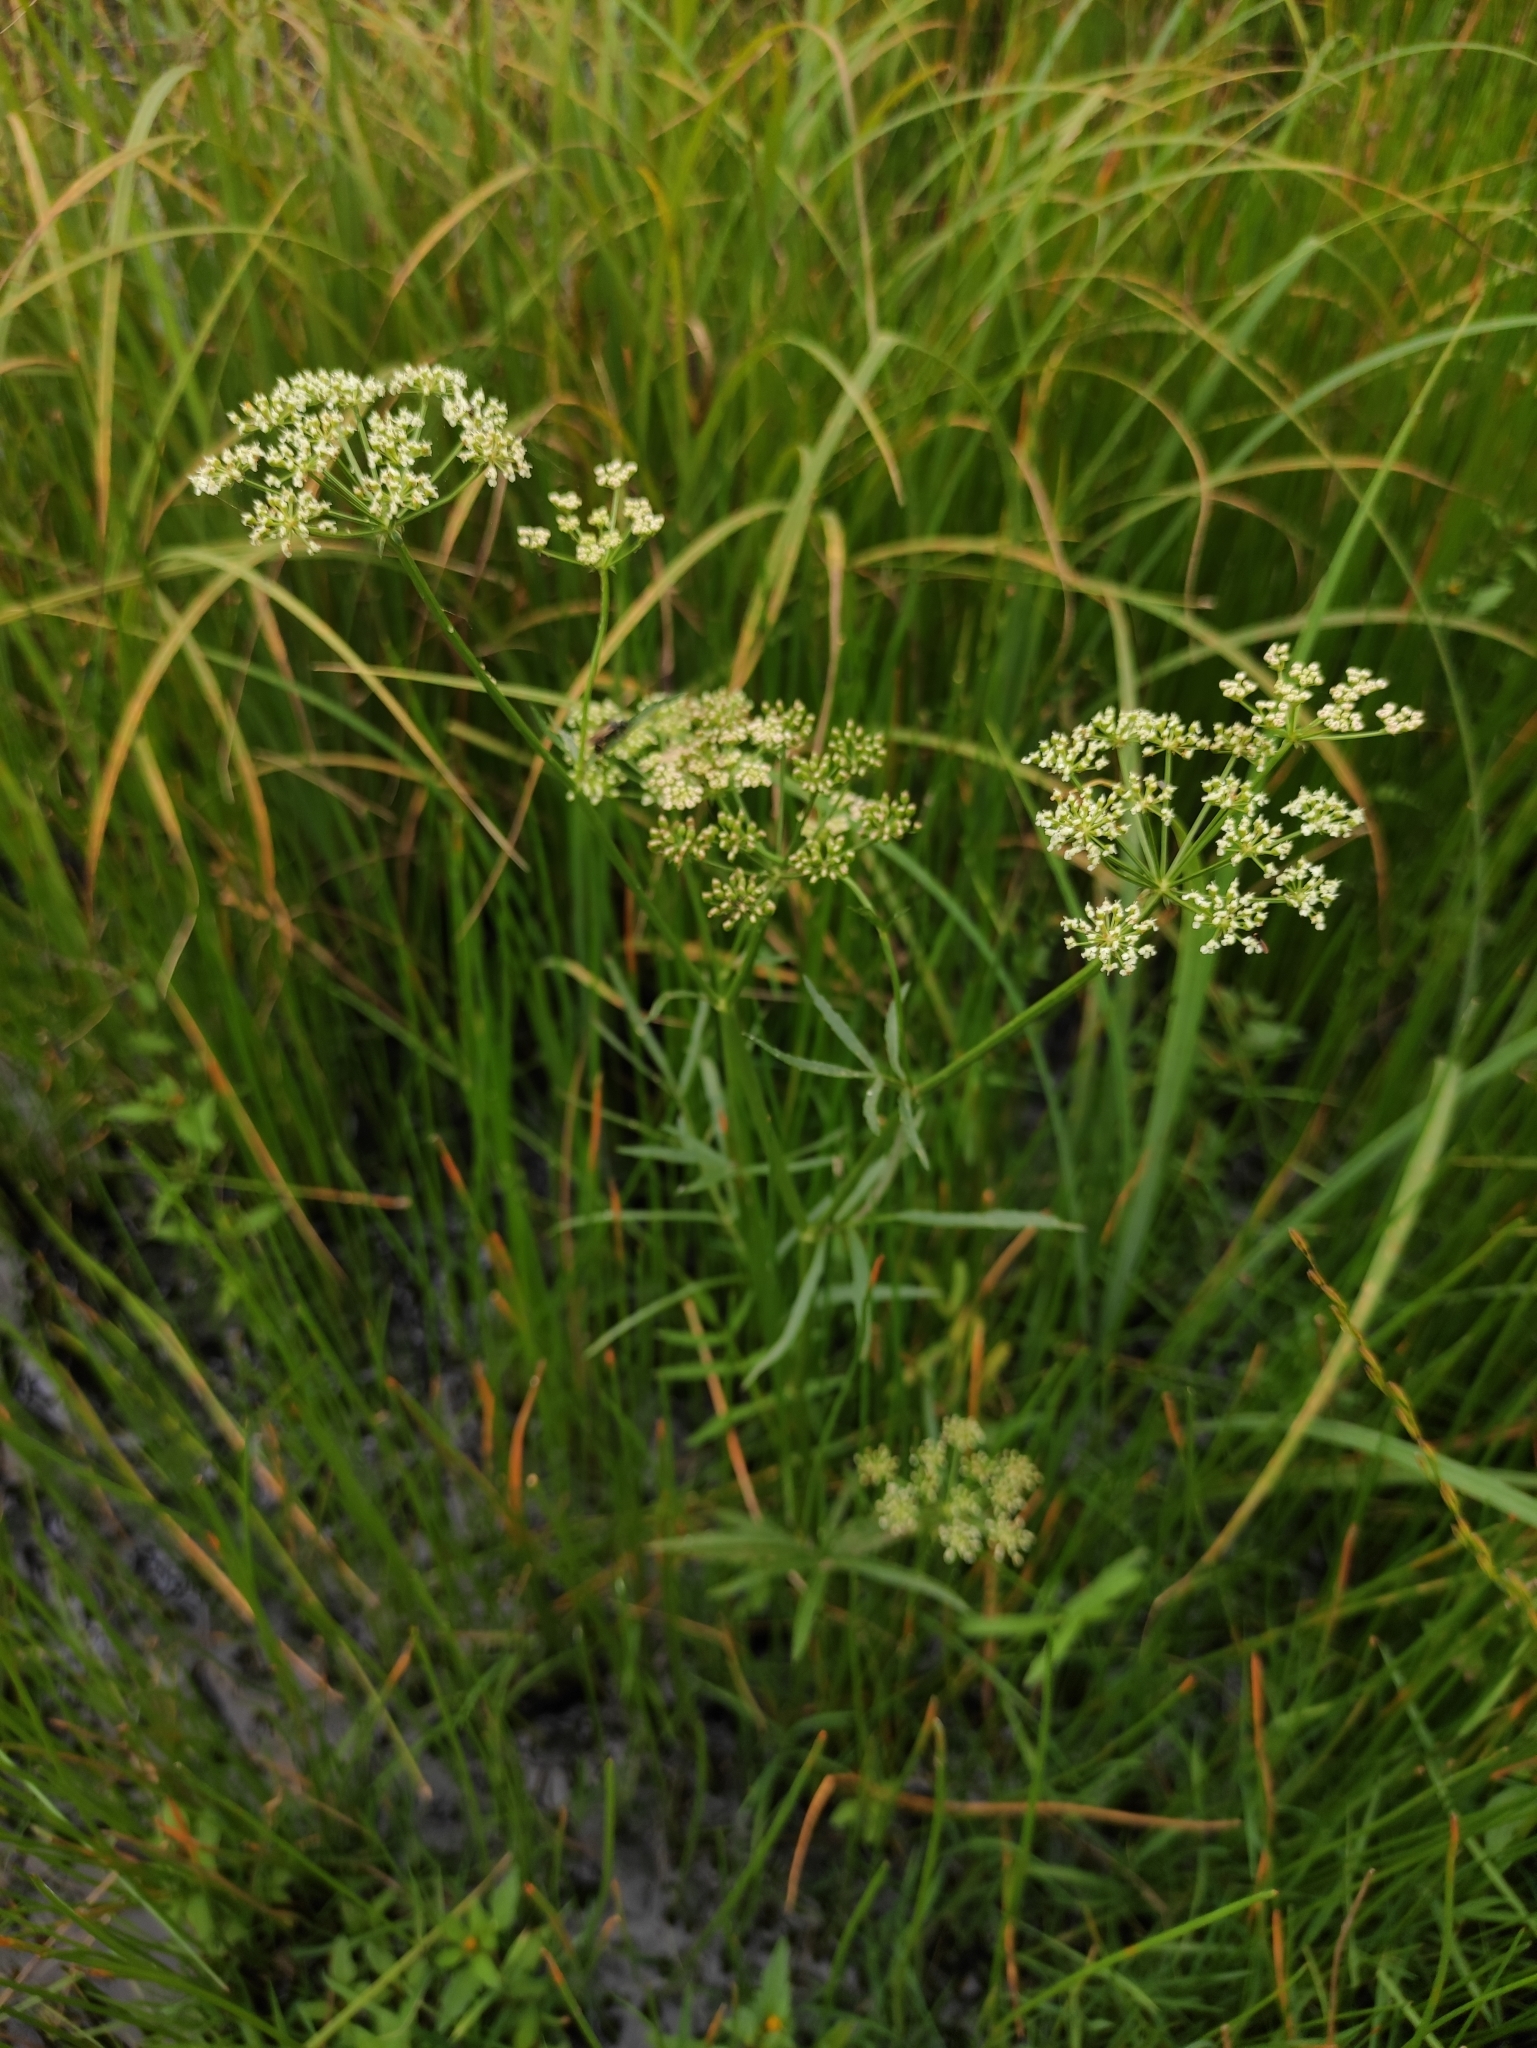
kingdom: Plantae
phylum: Tracheophyta
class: Magnoliopsida
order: Apiales
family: Apiaceae
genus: Sium
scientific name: Sium suave
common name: Hemlock water-parsnip
